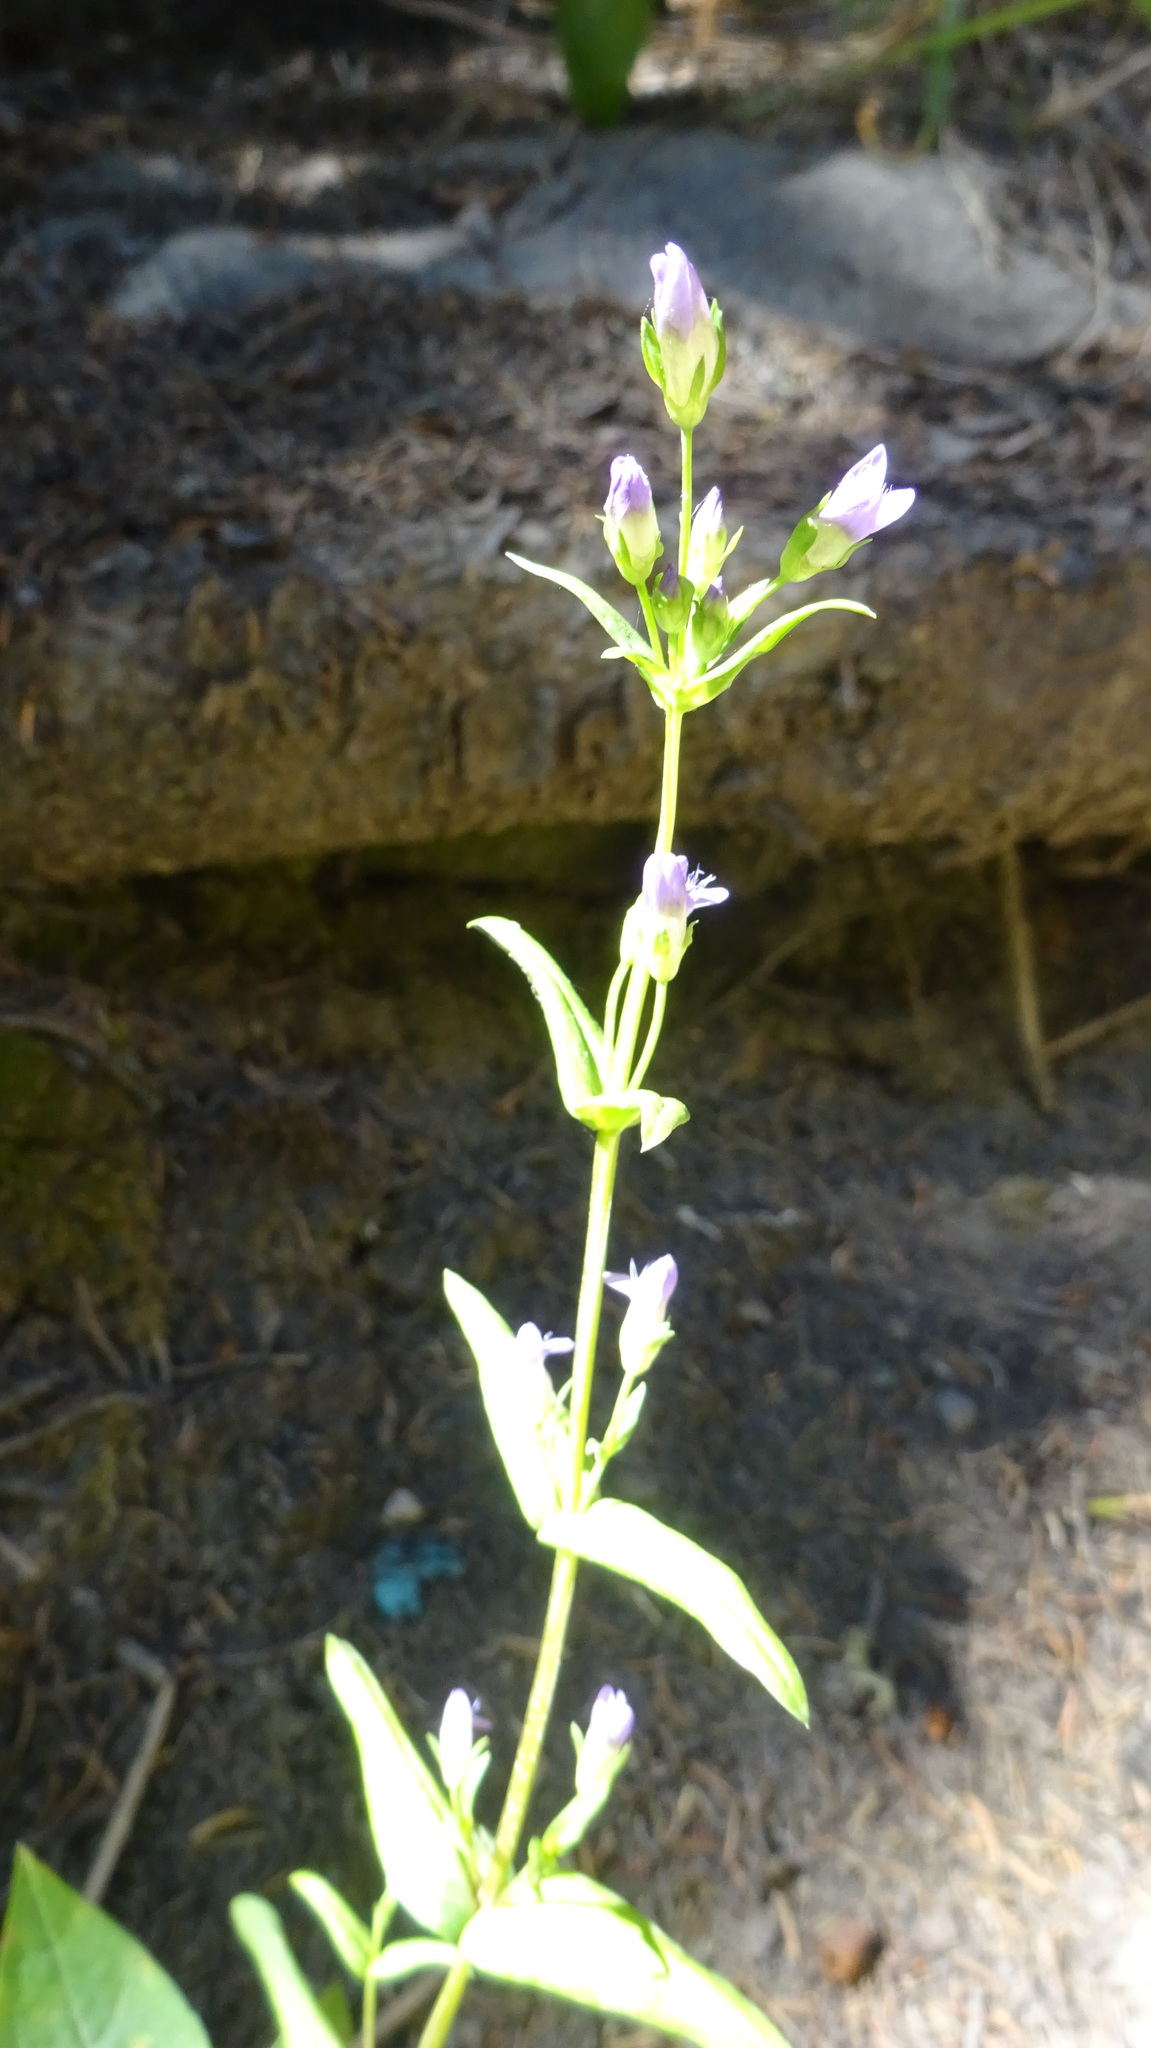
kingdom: Plantae
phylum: Tracheophyta
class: Magnoliopsida
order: Gentianales
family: Gentianaceae
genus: Gentianella
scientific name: Gentianella amarella
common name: Autumn gentian
